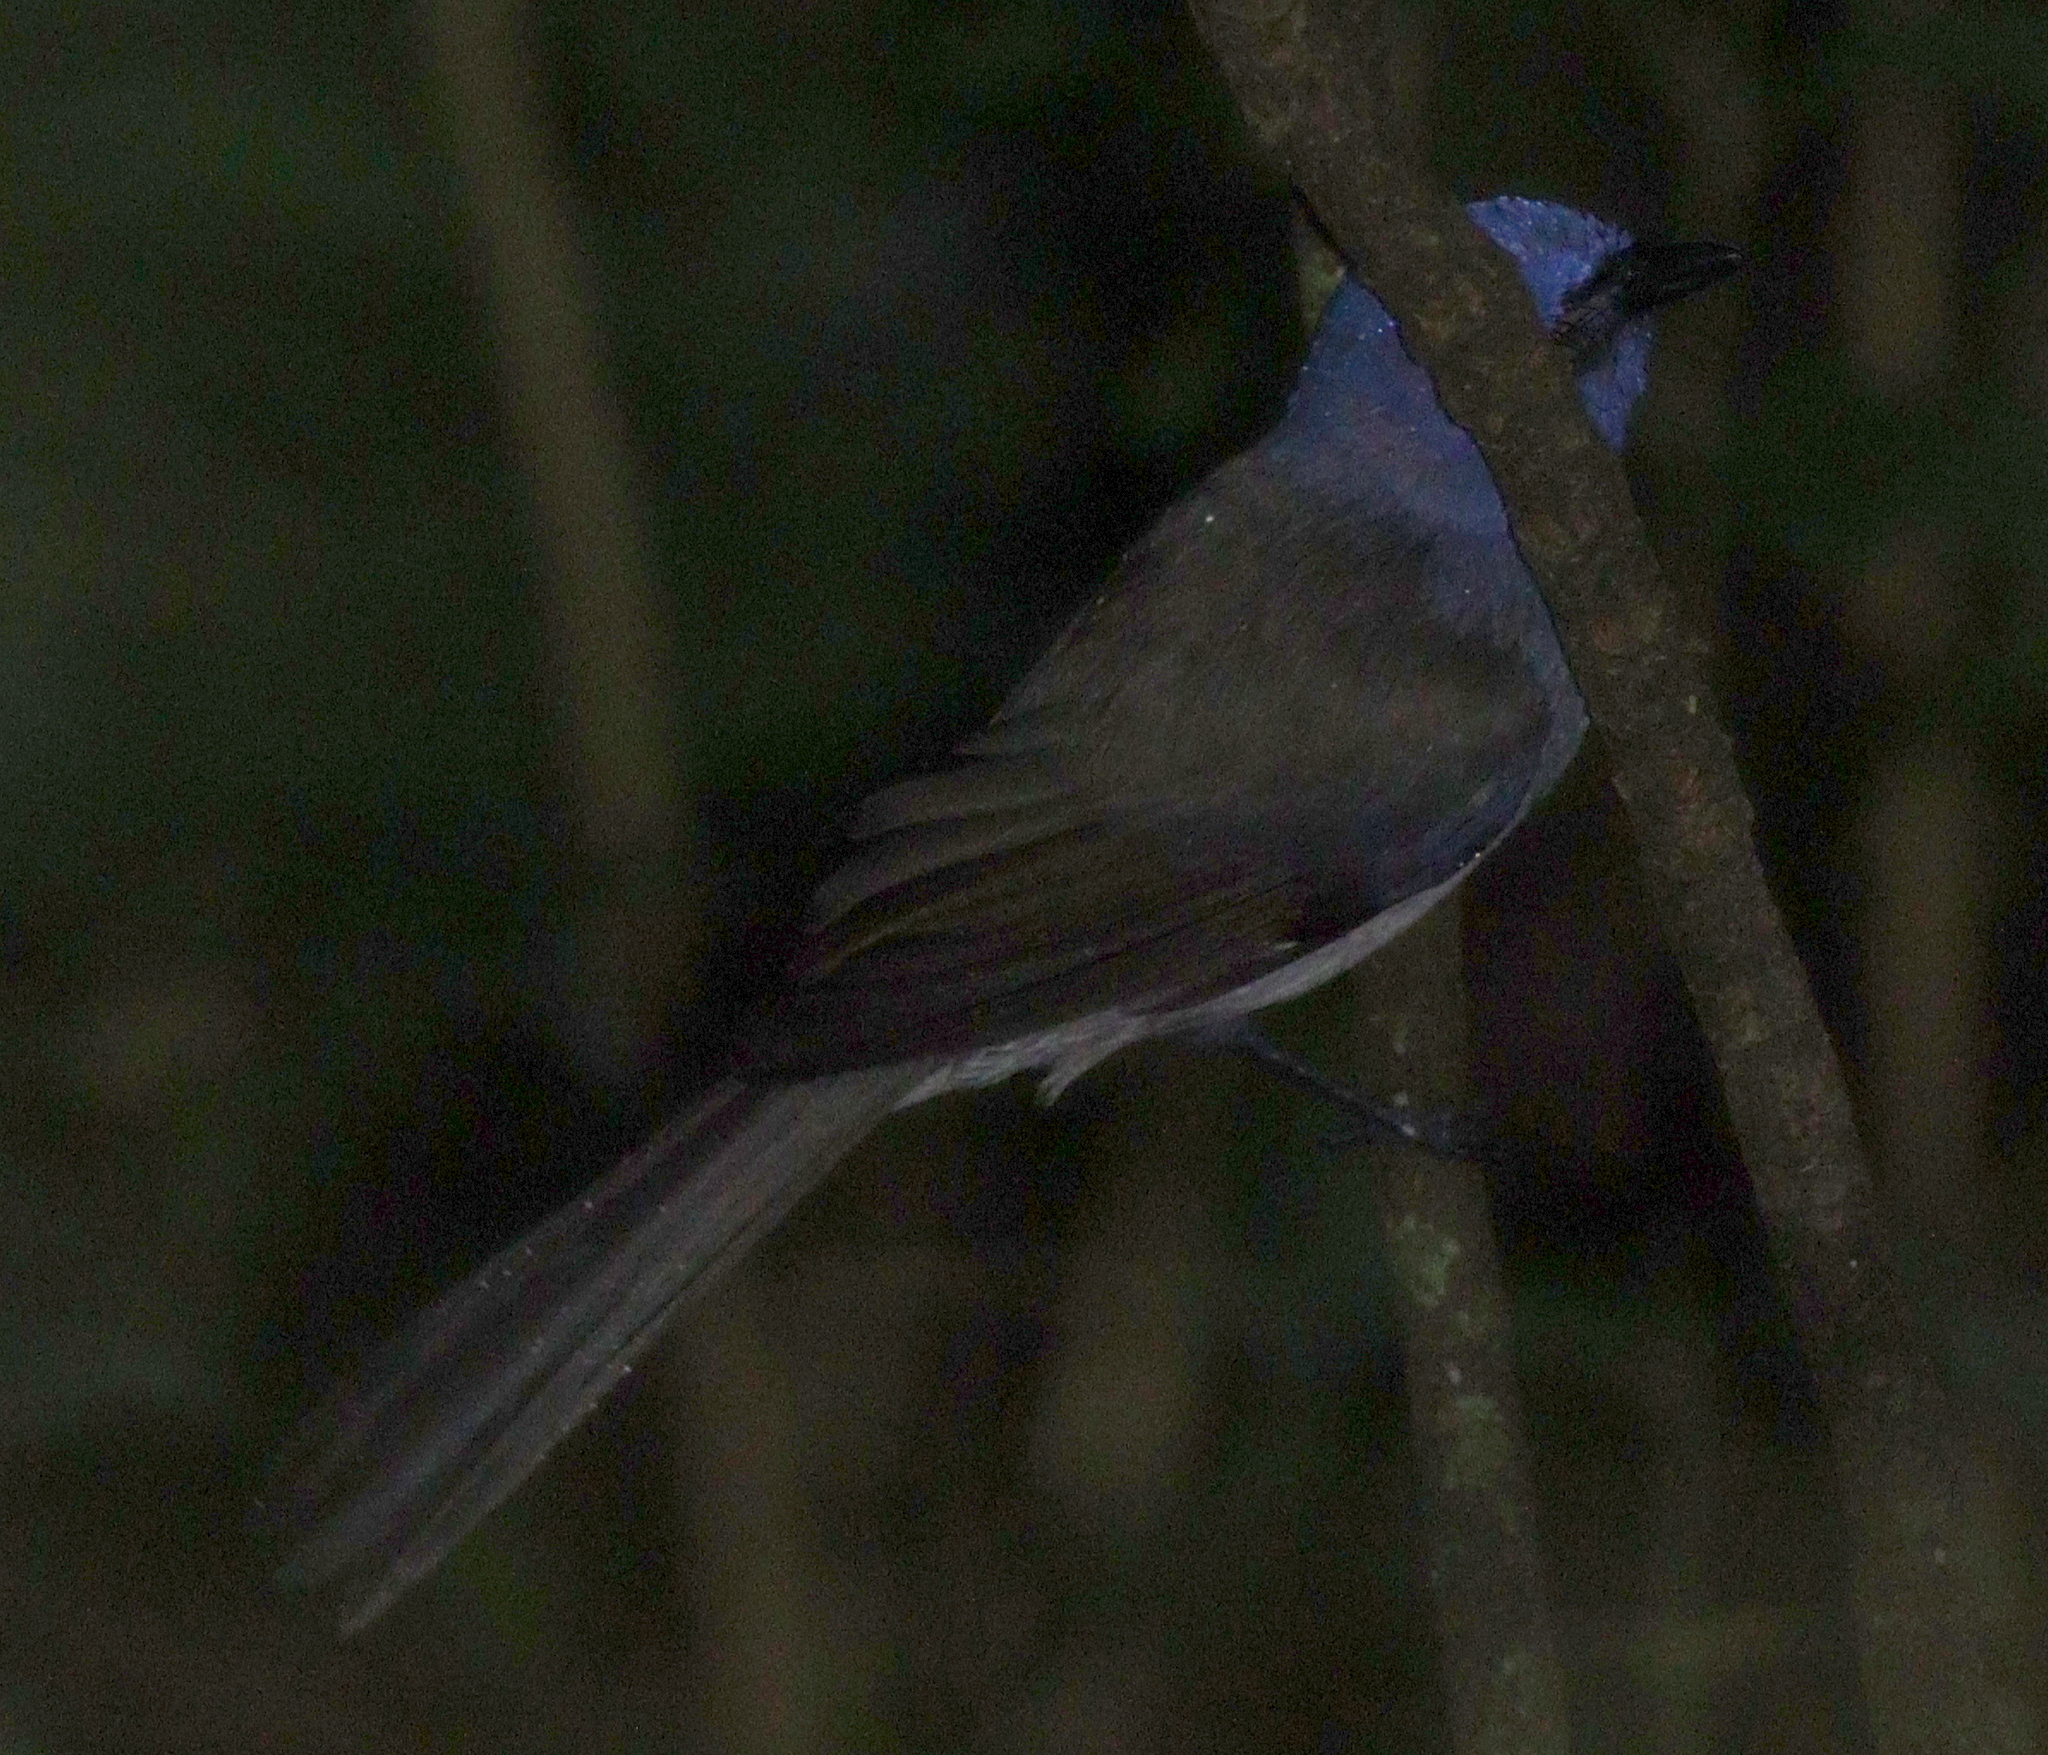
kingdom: Animalia
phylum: Chordata
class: Aves
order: Passeriformes
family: Monarchidae
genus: Hypothymis
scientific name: Hypothymis azurea
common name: Black-naped monarch
